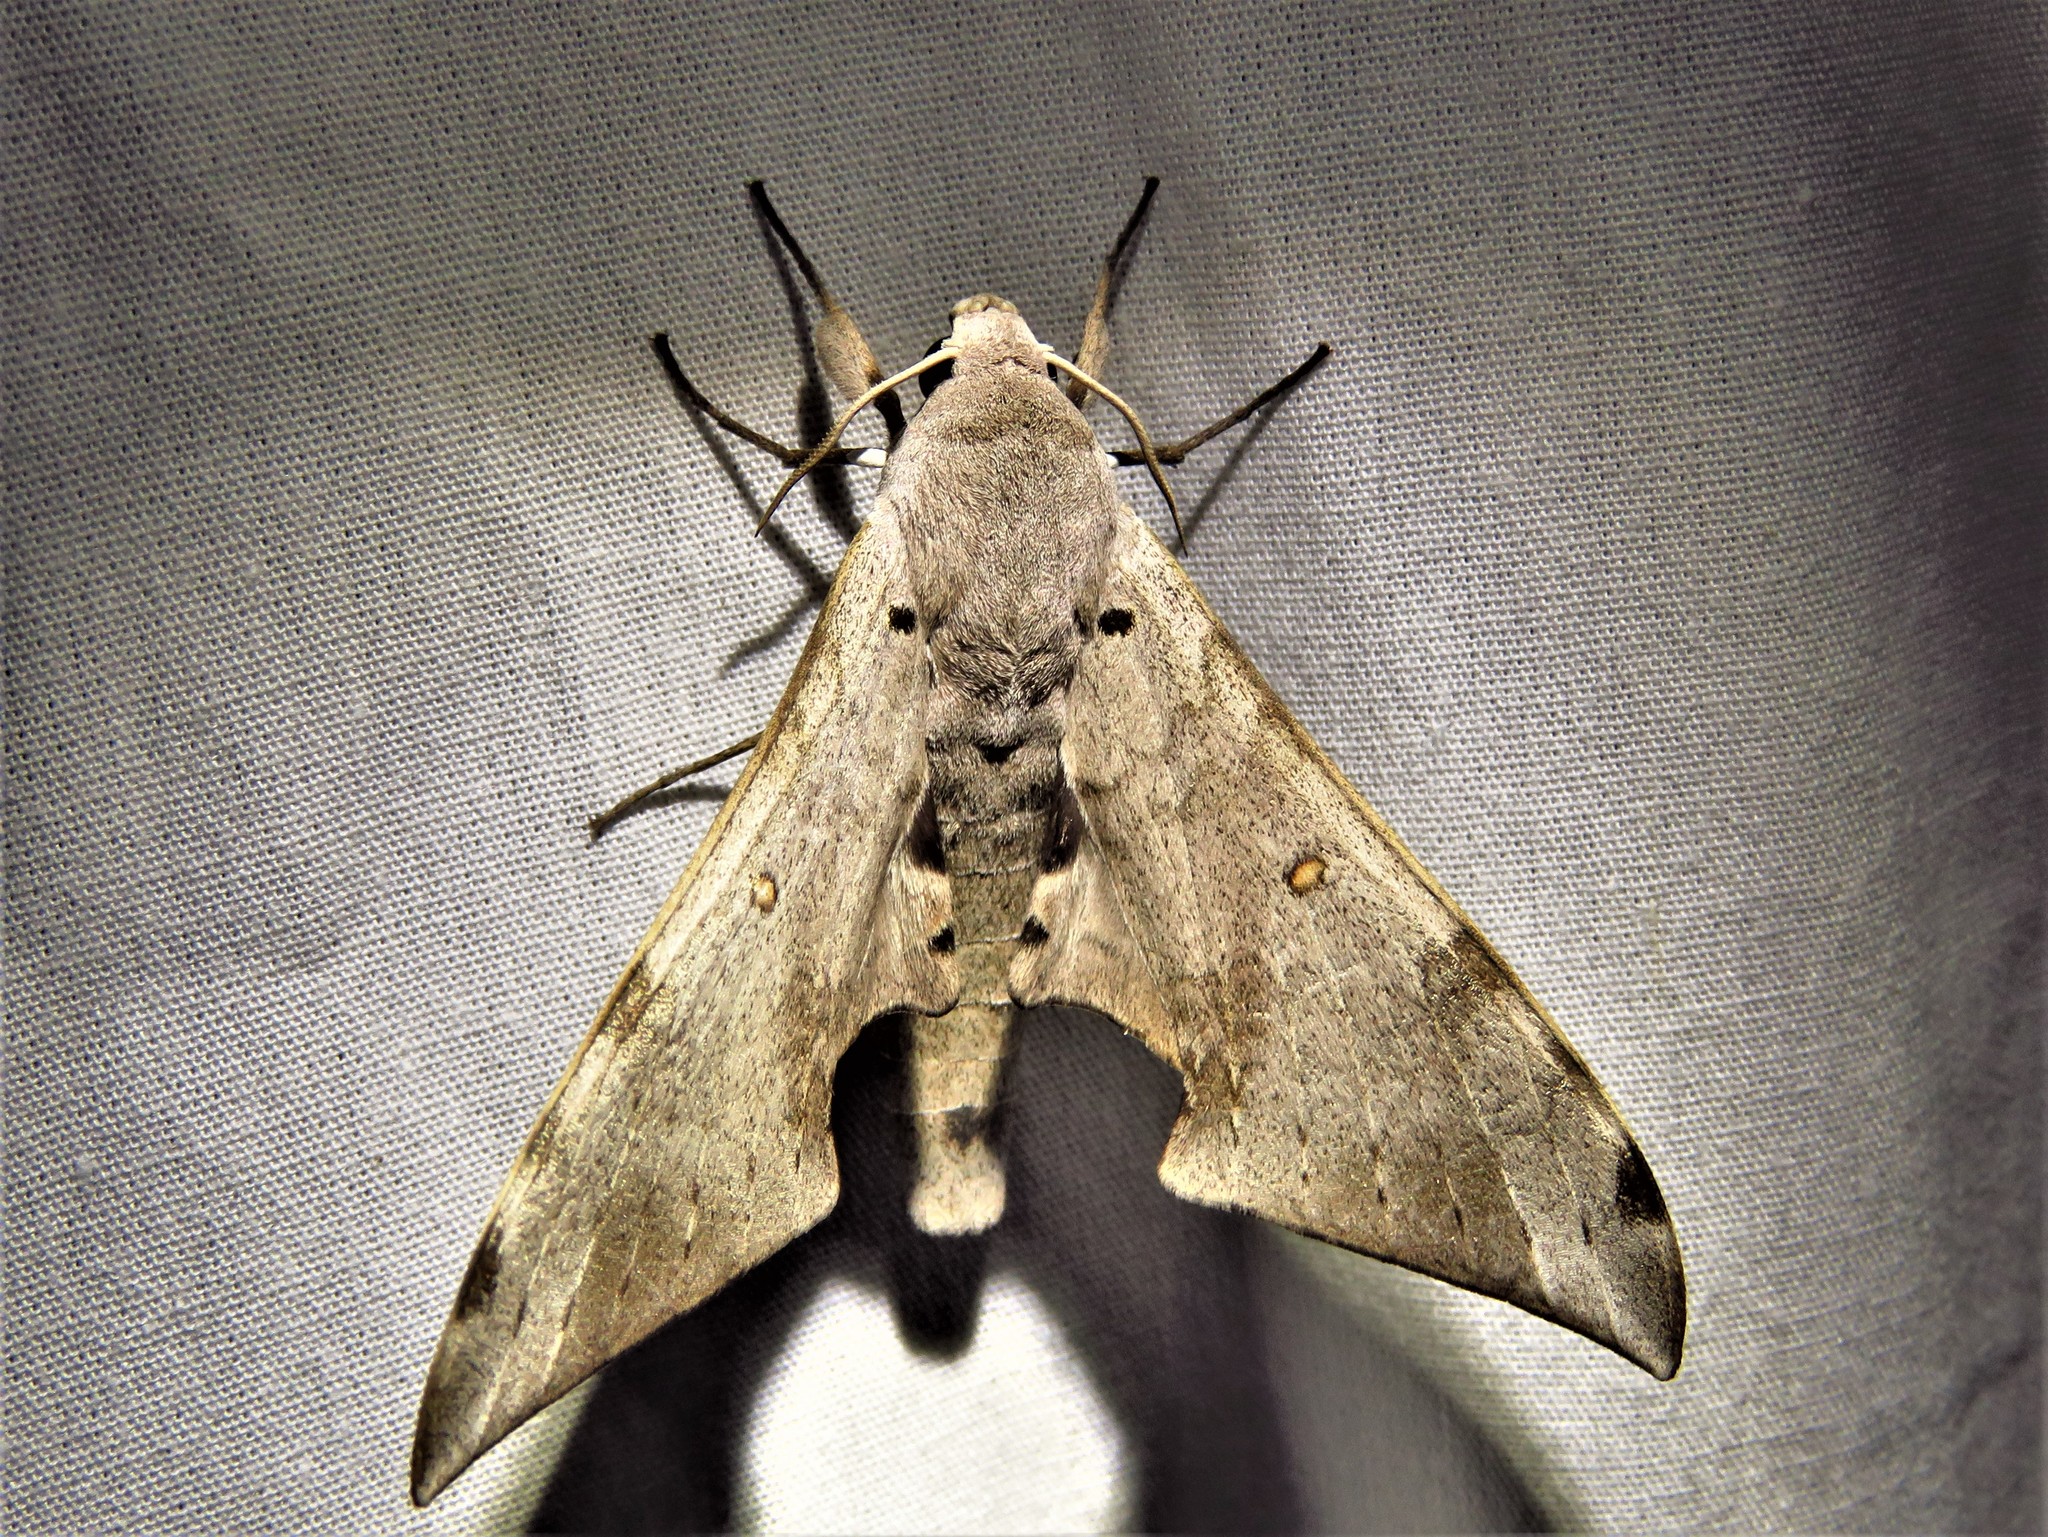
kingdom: Animalia
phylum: Arthropoda
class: Insecta
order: Lepidoptera
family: Sphingidae
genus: Polyptychus
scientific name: Polyptychus retusus
